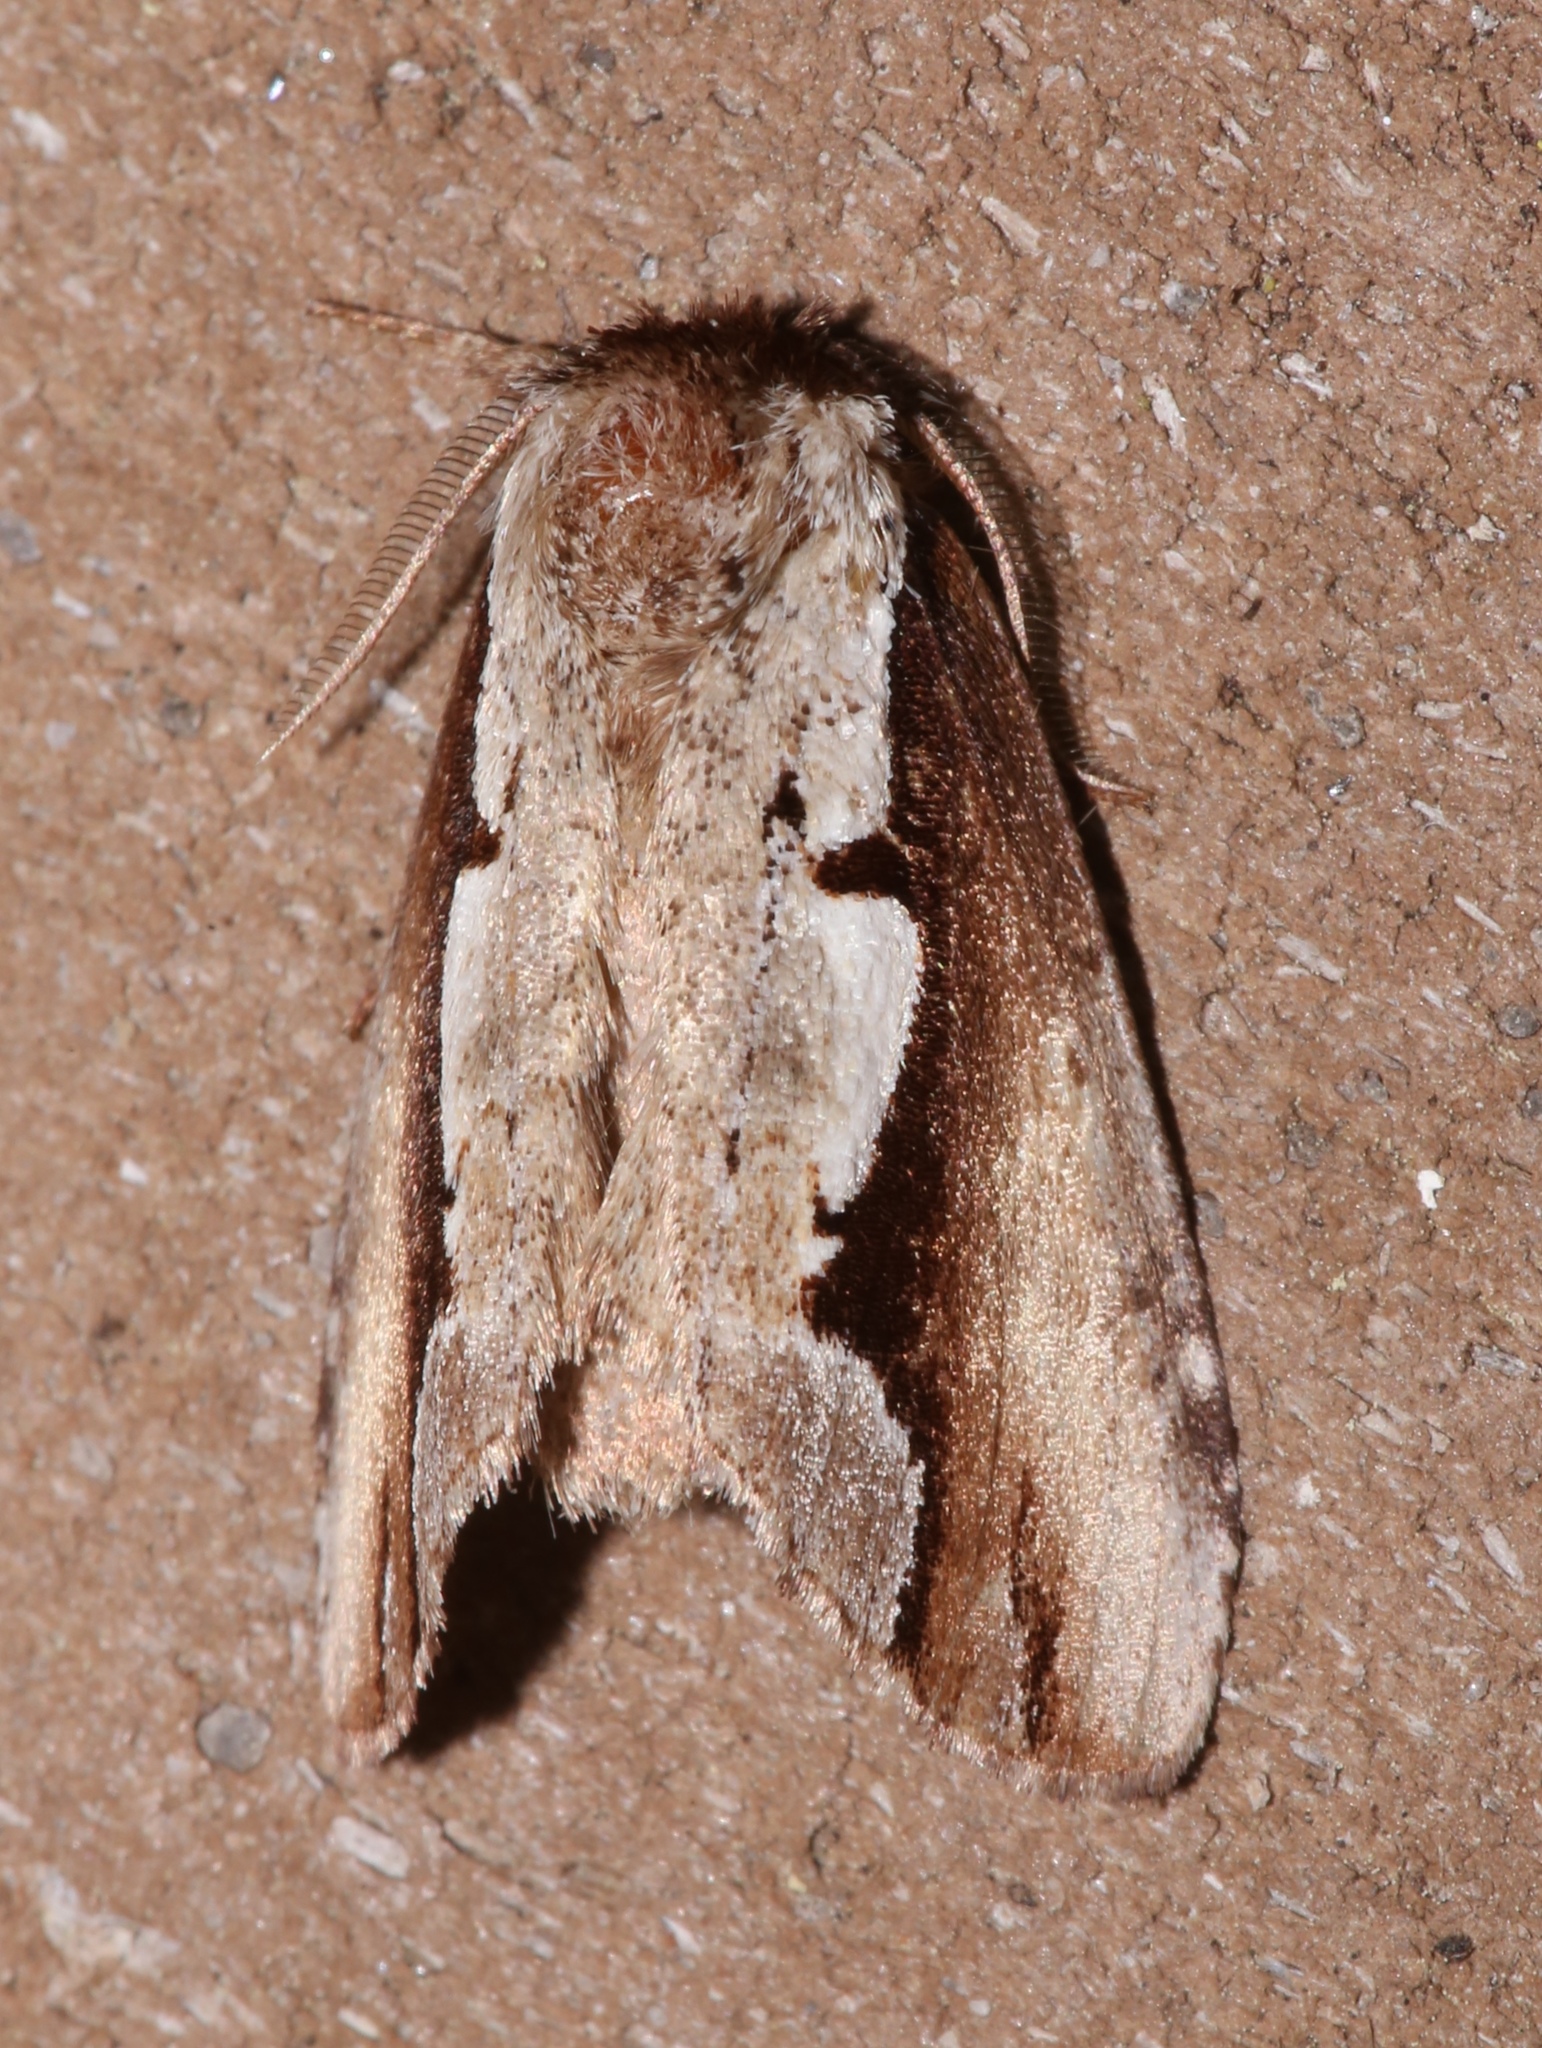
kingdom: Animalia
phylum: Arthropoda
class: Insecta
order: Lepidoptera
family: Notodontidae
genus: Nerice
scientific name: Nerice bidentata
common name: Double-toothed prominent
